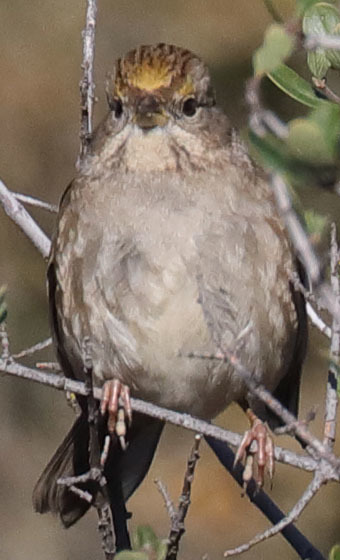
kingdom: Animalia
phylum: Chordata
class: Aves
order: Passeriformes
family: Passerellidae
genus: Zonotrichia
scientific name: Zonotrichia atricapilla
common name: Golden-crowned sparrow
